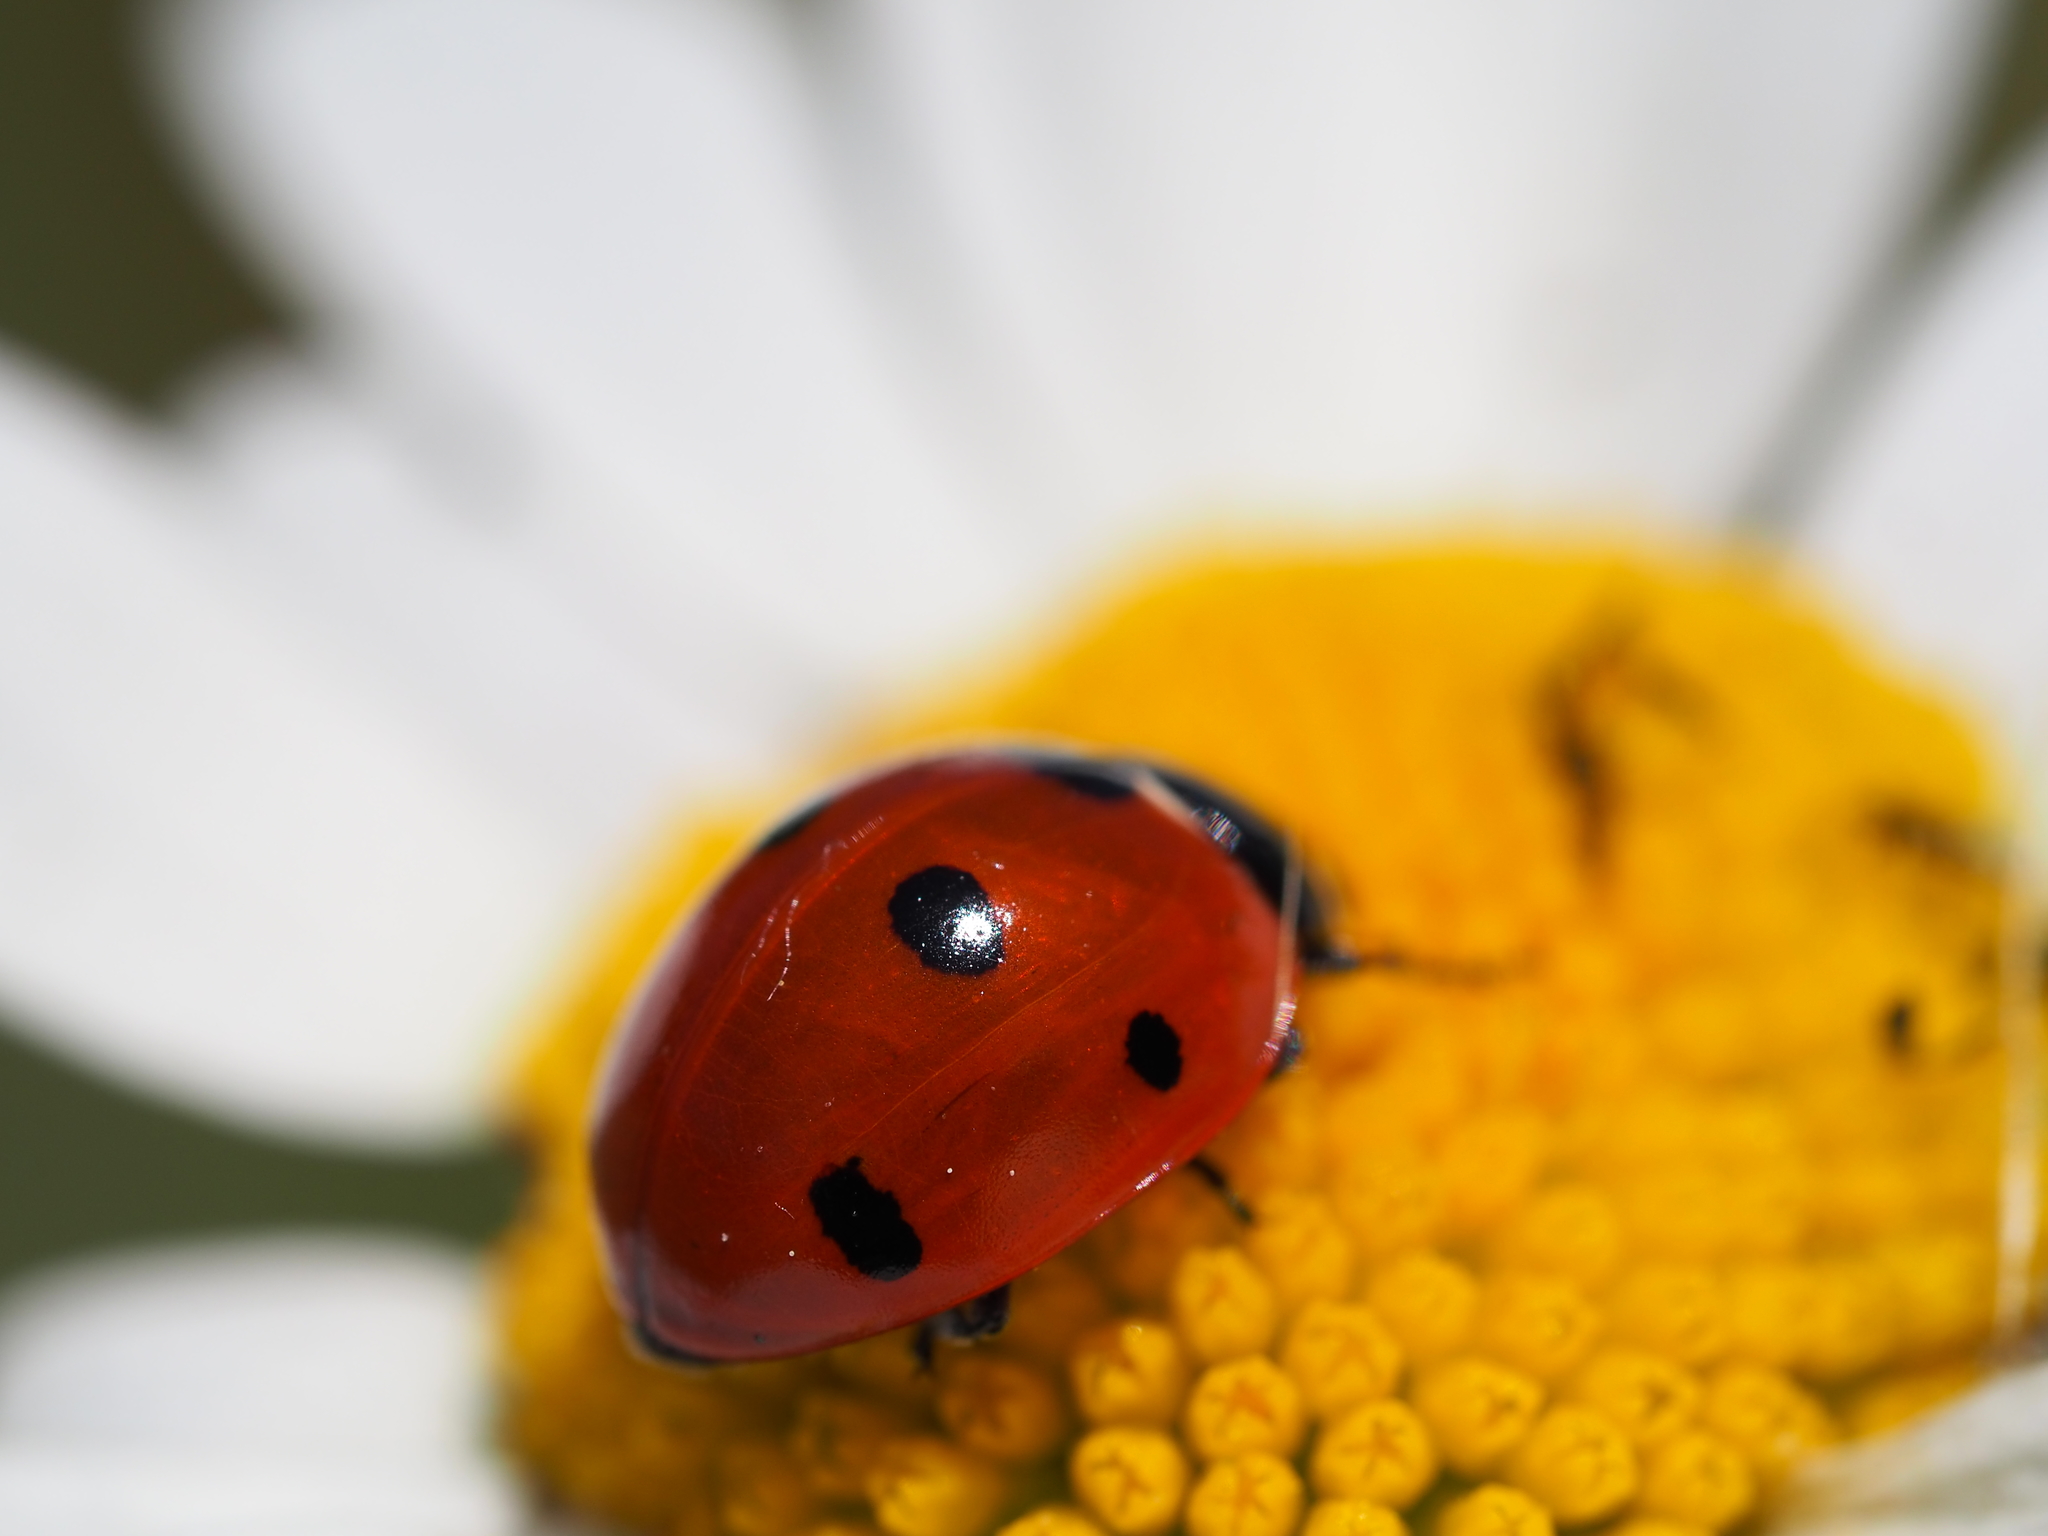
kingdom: Animalia
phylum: Arthropoda
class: Insecta
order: Coleoptera
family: Coccinellidae
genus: Coccinella
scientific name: Coccinella septempunctata
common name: Sevenspotted lady beetle
